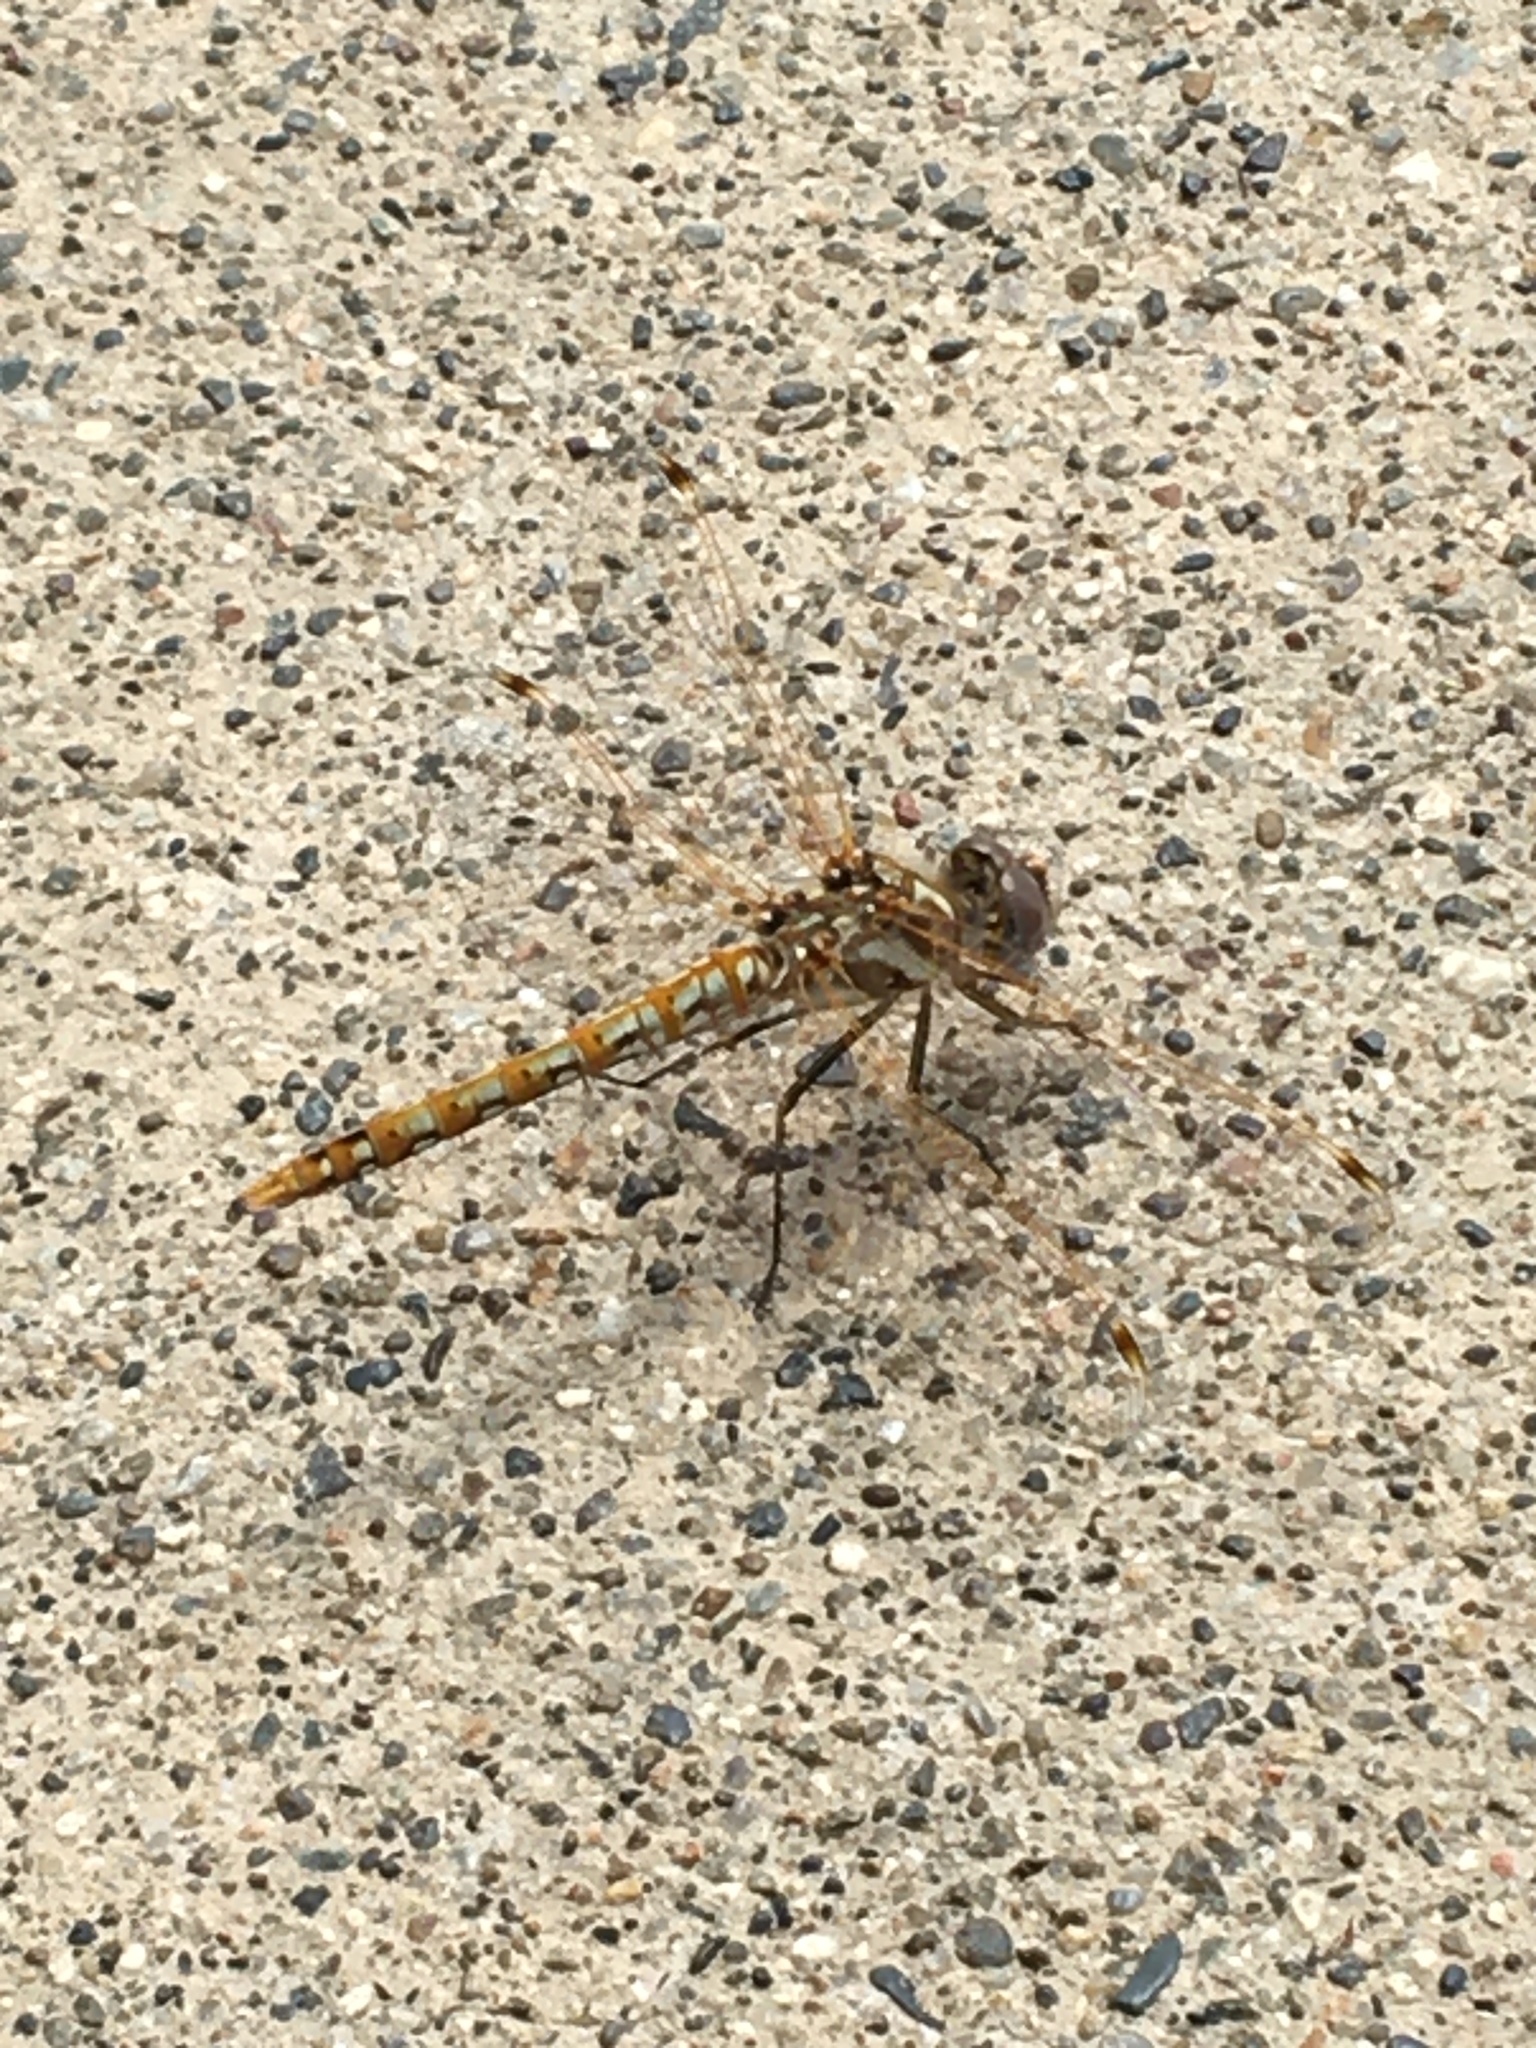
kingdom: Animalia
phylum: Arthropoda
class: Insecta
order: Odonata
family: Libellulidae
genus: Sympetrum
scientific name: Sympetrum corruptum
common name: Variegated meadowhawk
